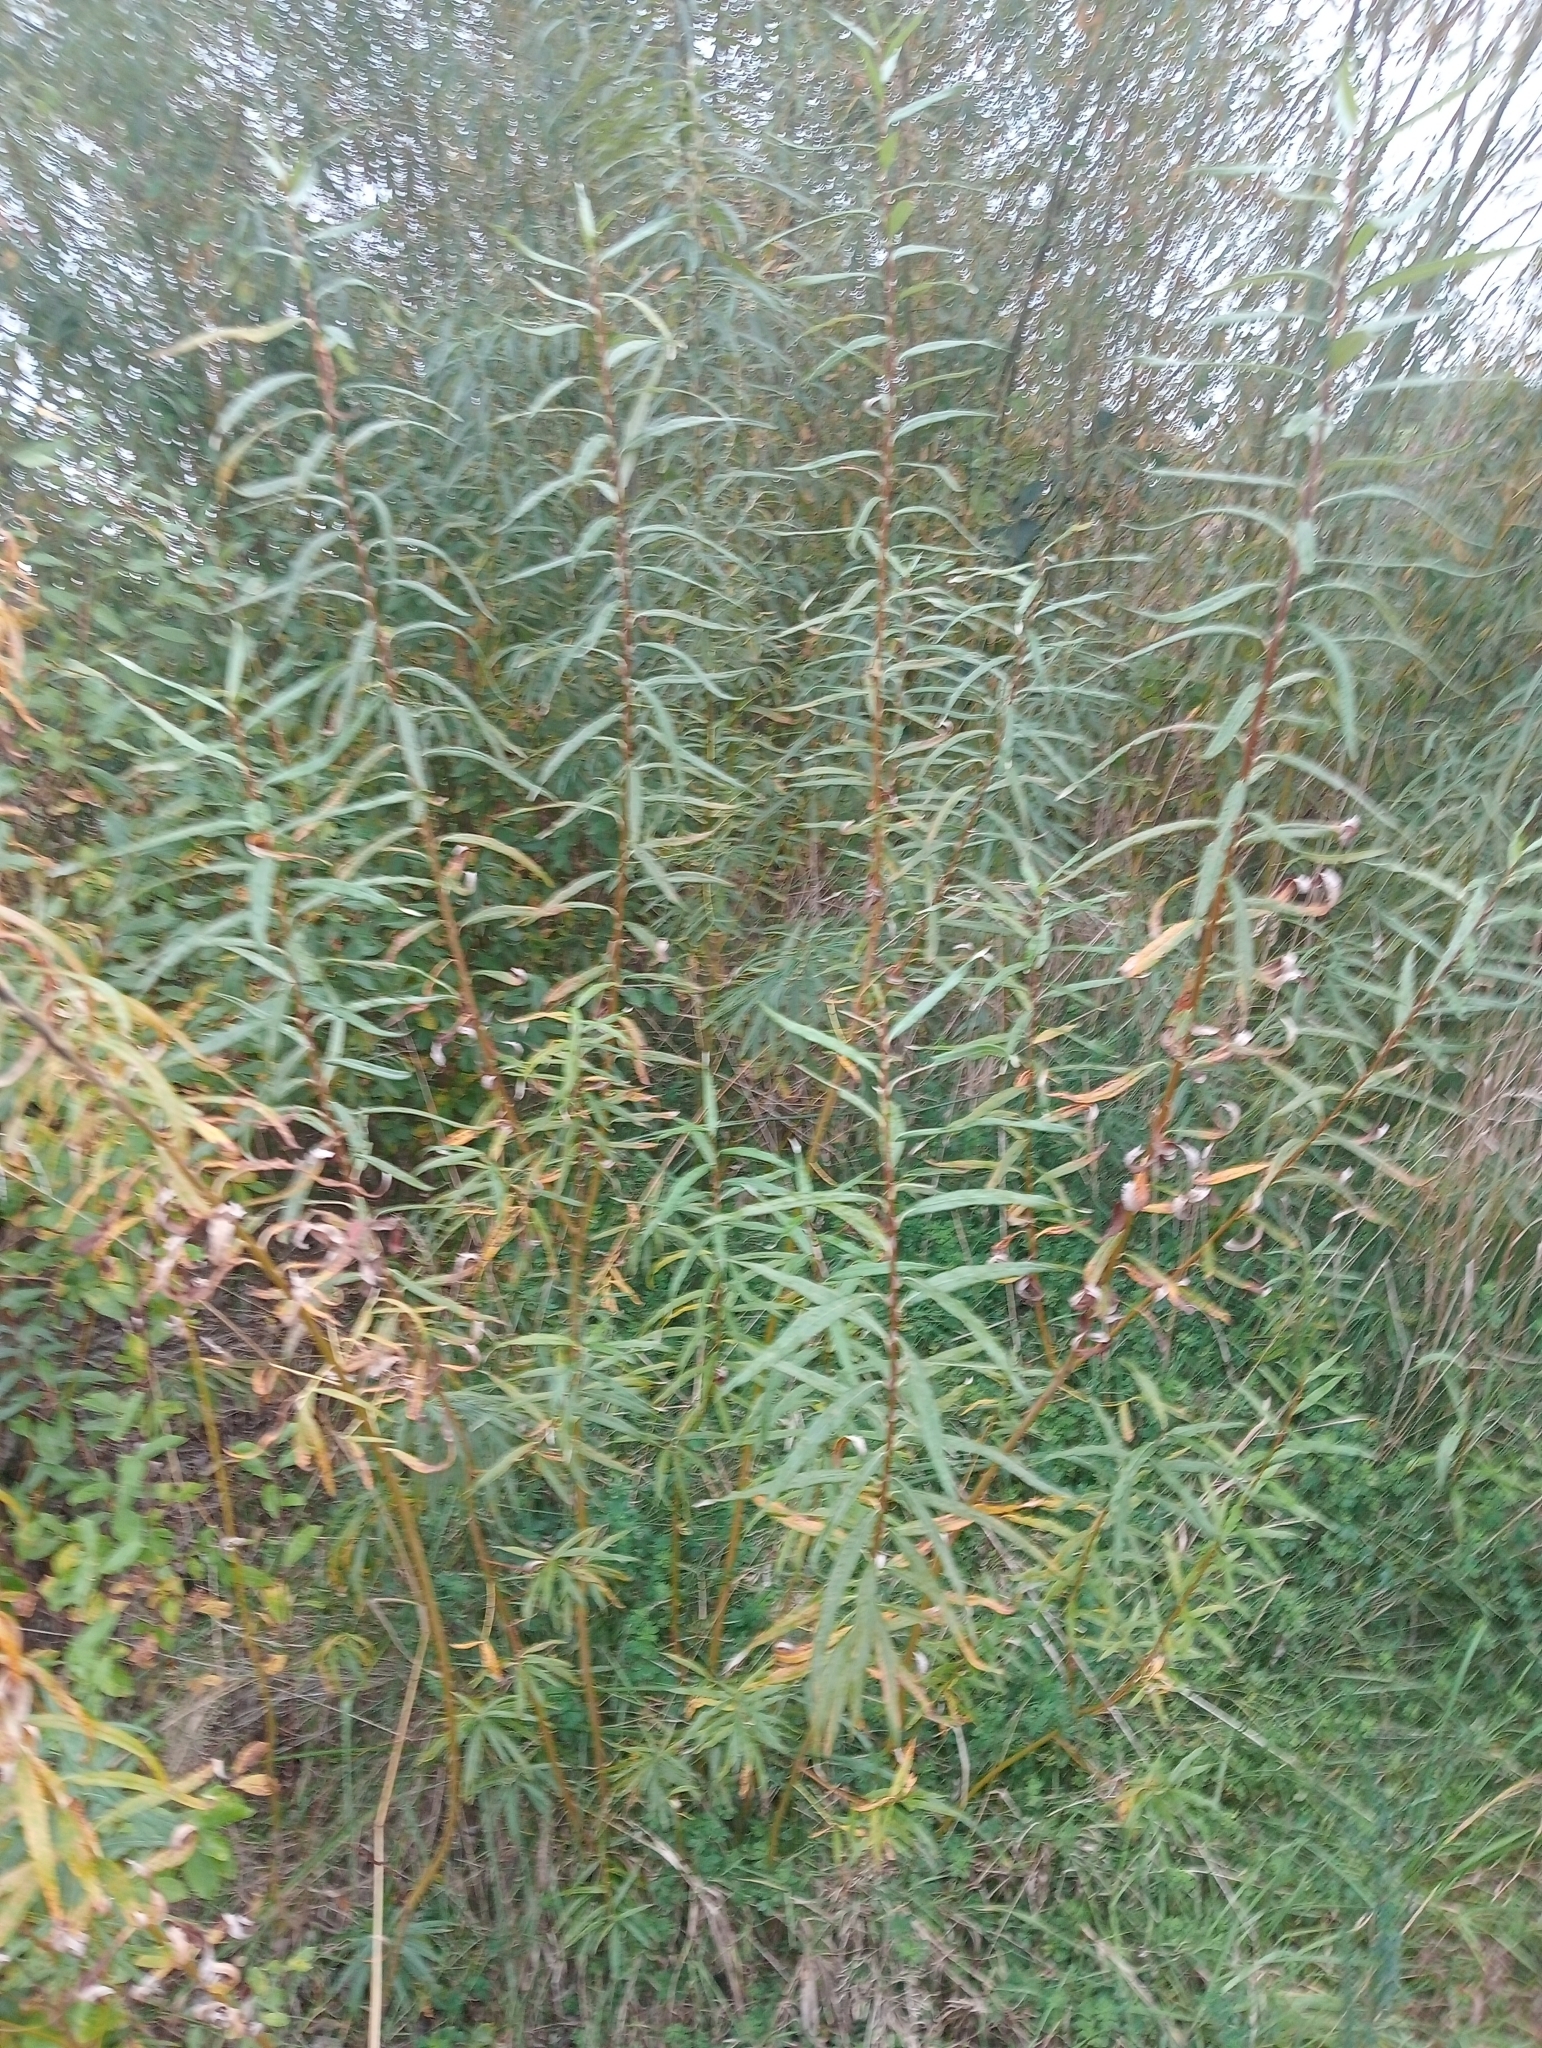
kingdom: Plantae
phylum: Tracheophyta
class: Magnoliopsida
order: Malpighiales
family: Salicaceae
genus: Salix
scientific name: Salix viminalis
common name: Osier
